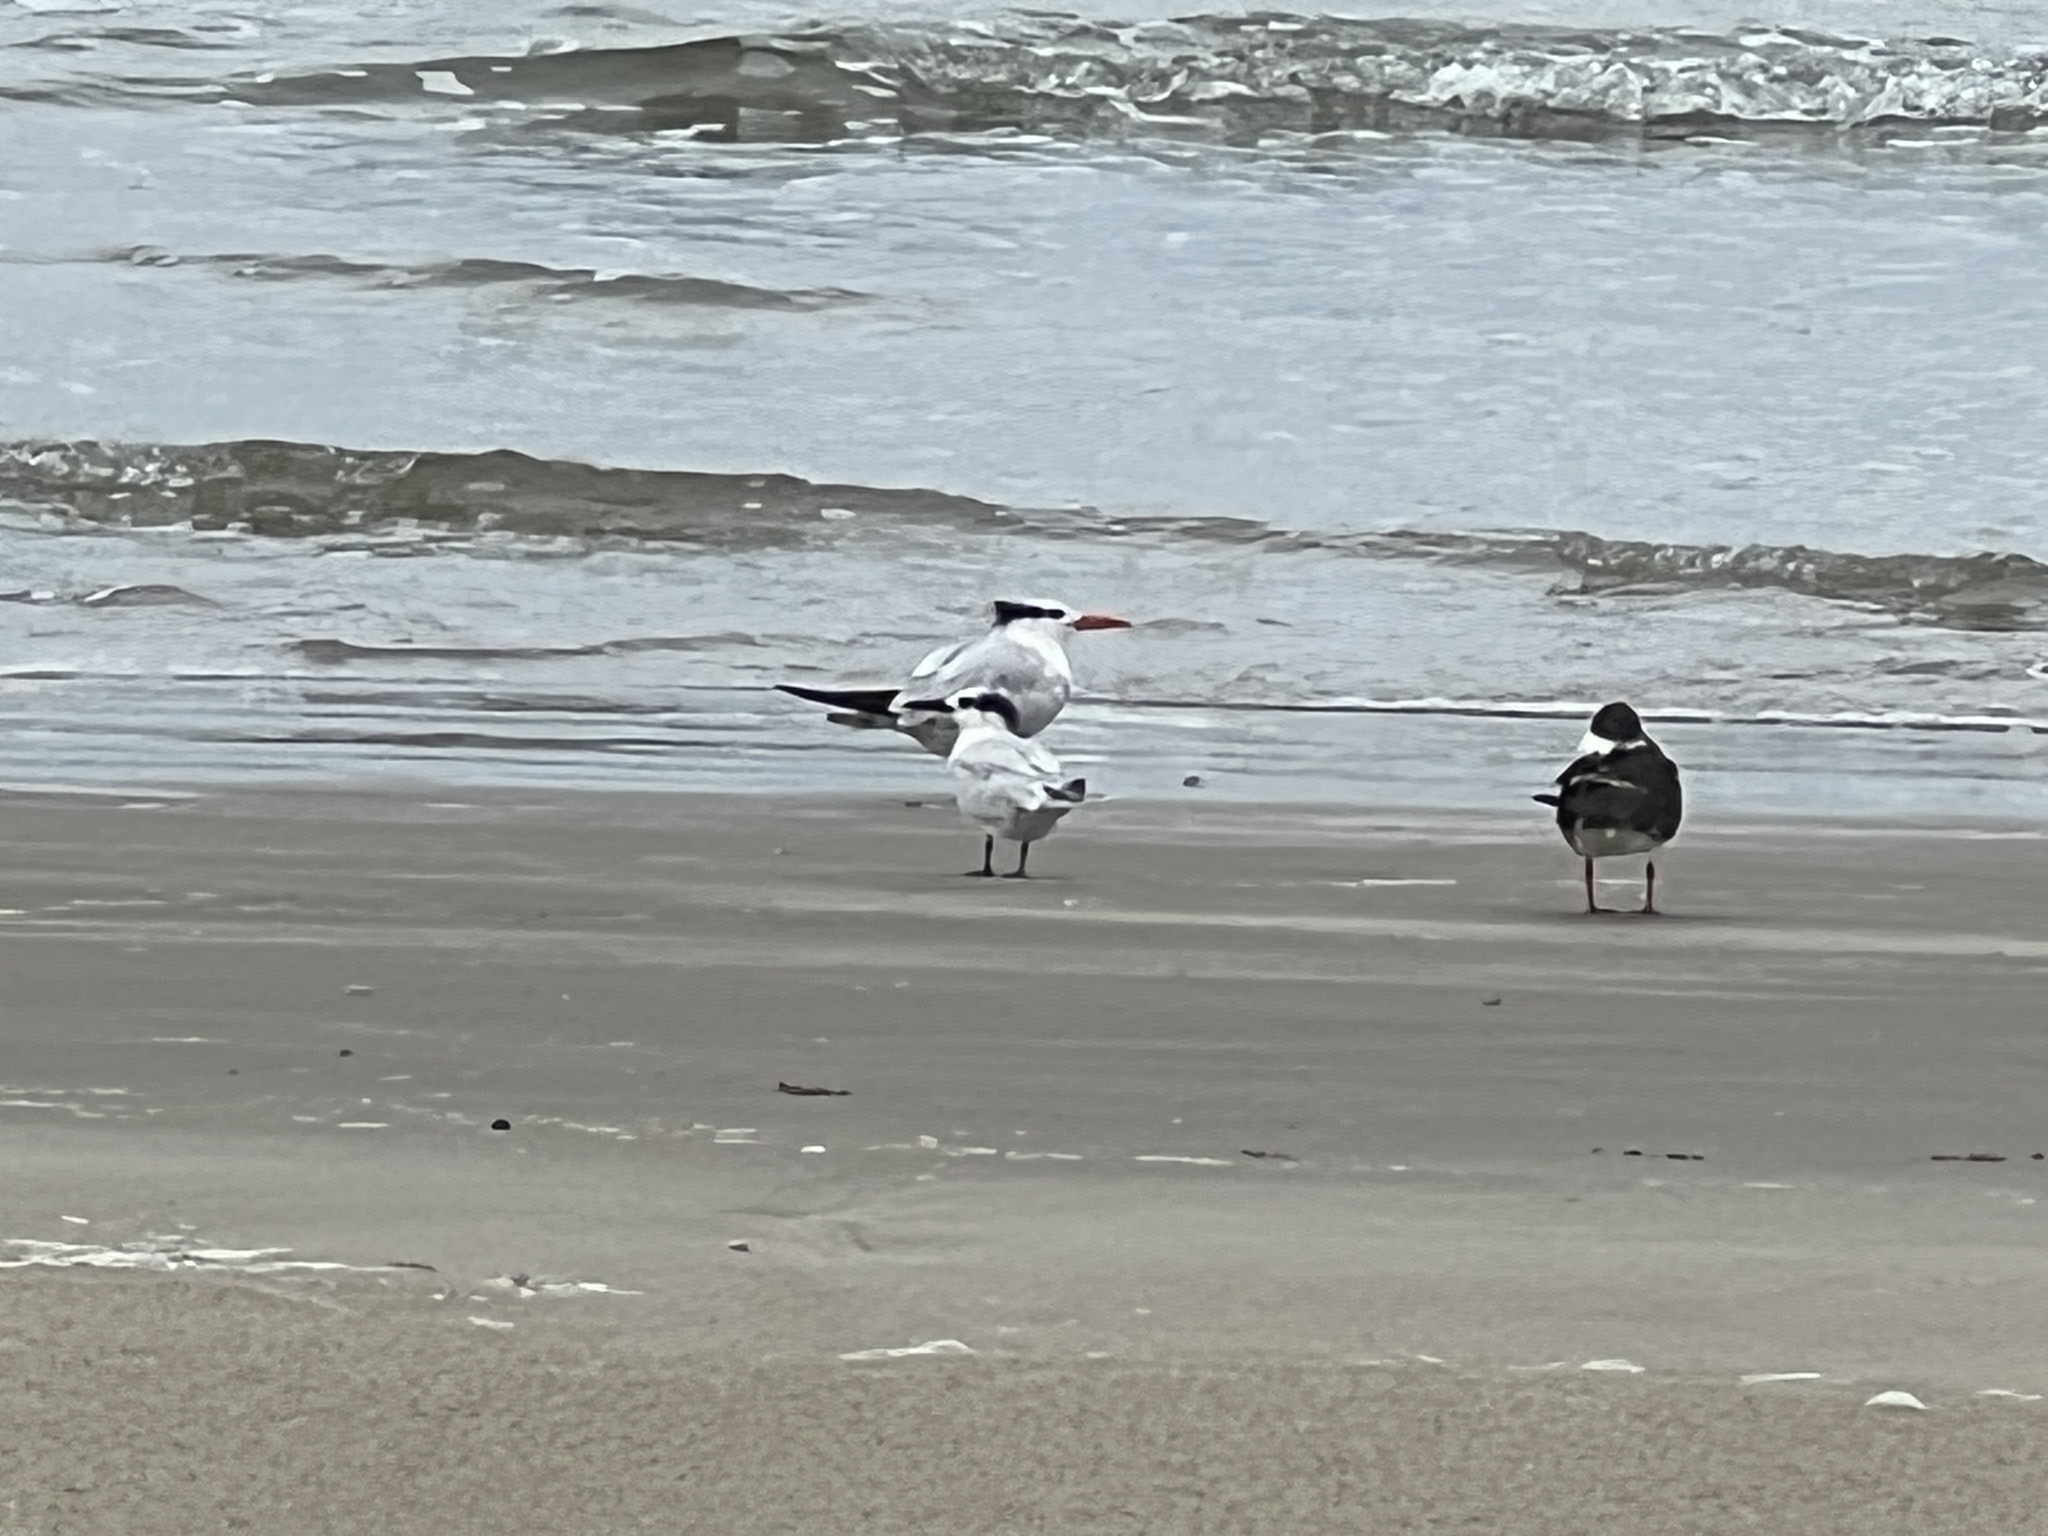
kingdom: Animalia
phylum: Chordata
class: Aves
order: Charadriiformes
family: Laridae
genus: Thalasseus
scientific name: Thalasseus maximus
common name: Royal tern
